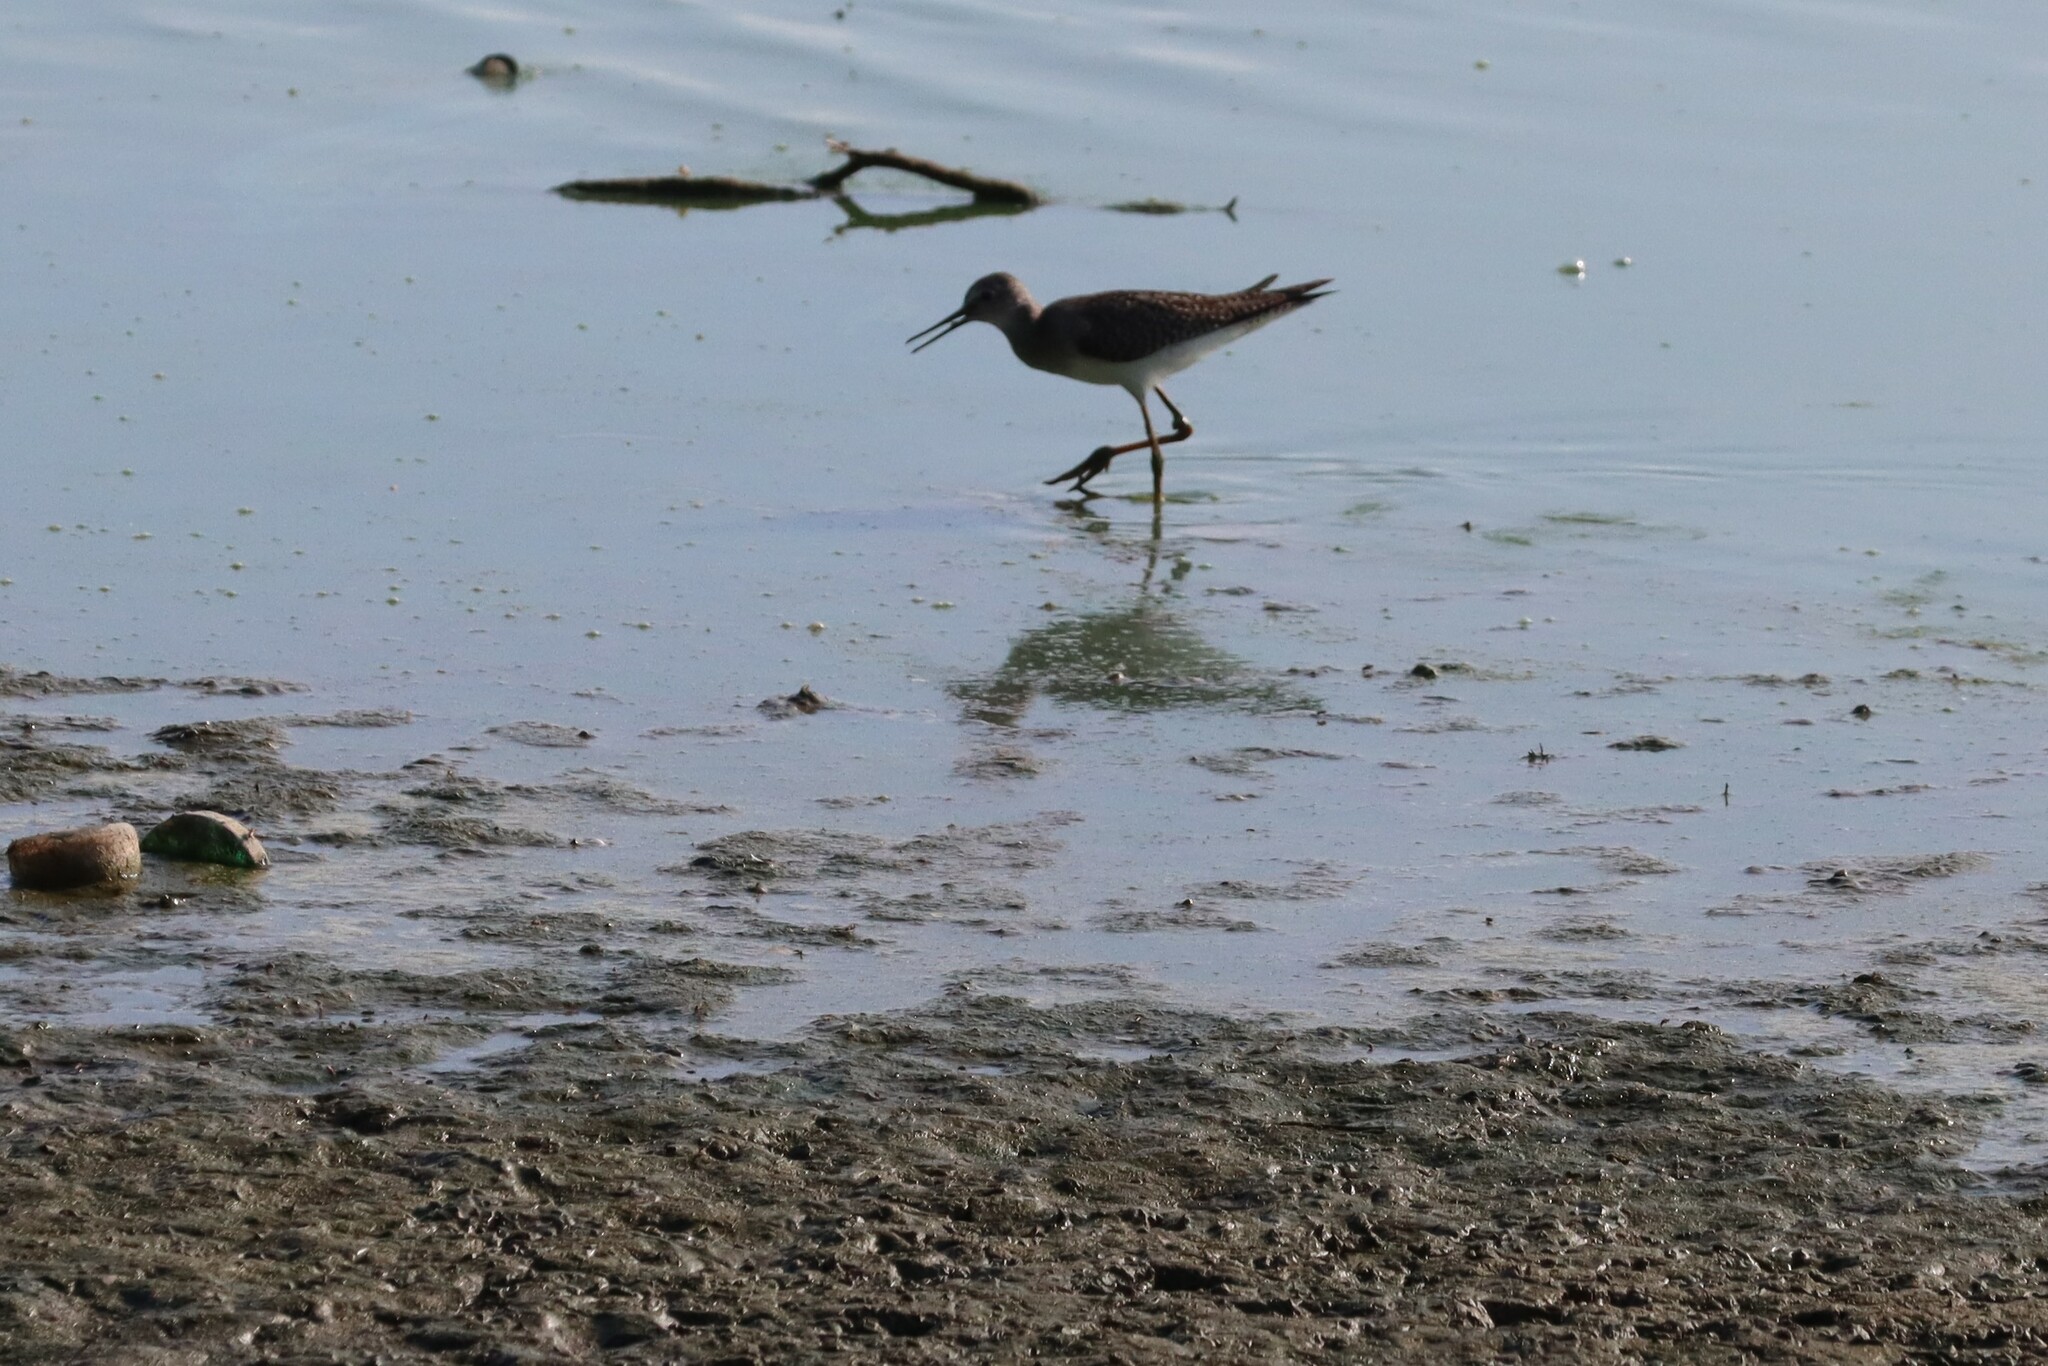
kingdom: Animalia
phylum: Chordata
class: Aves
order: Charadriiformes
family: Scolopacidae
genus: Tringa
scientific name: Tringa flavipes
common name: Lesser yellowlegs
